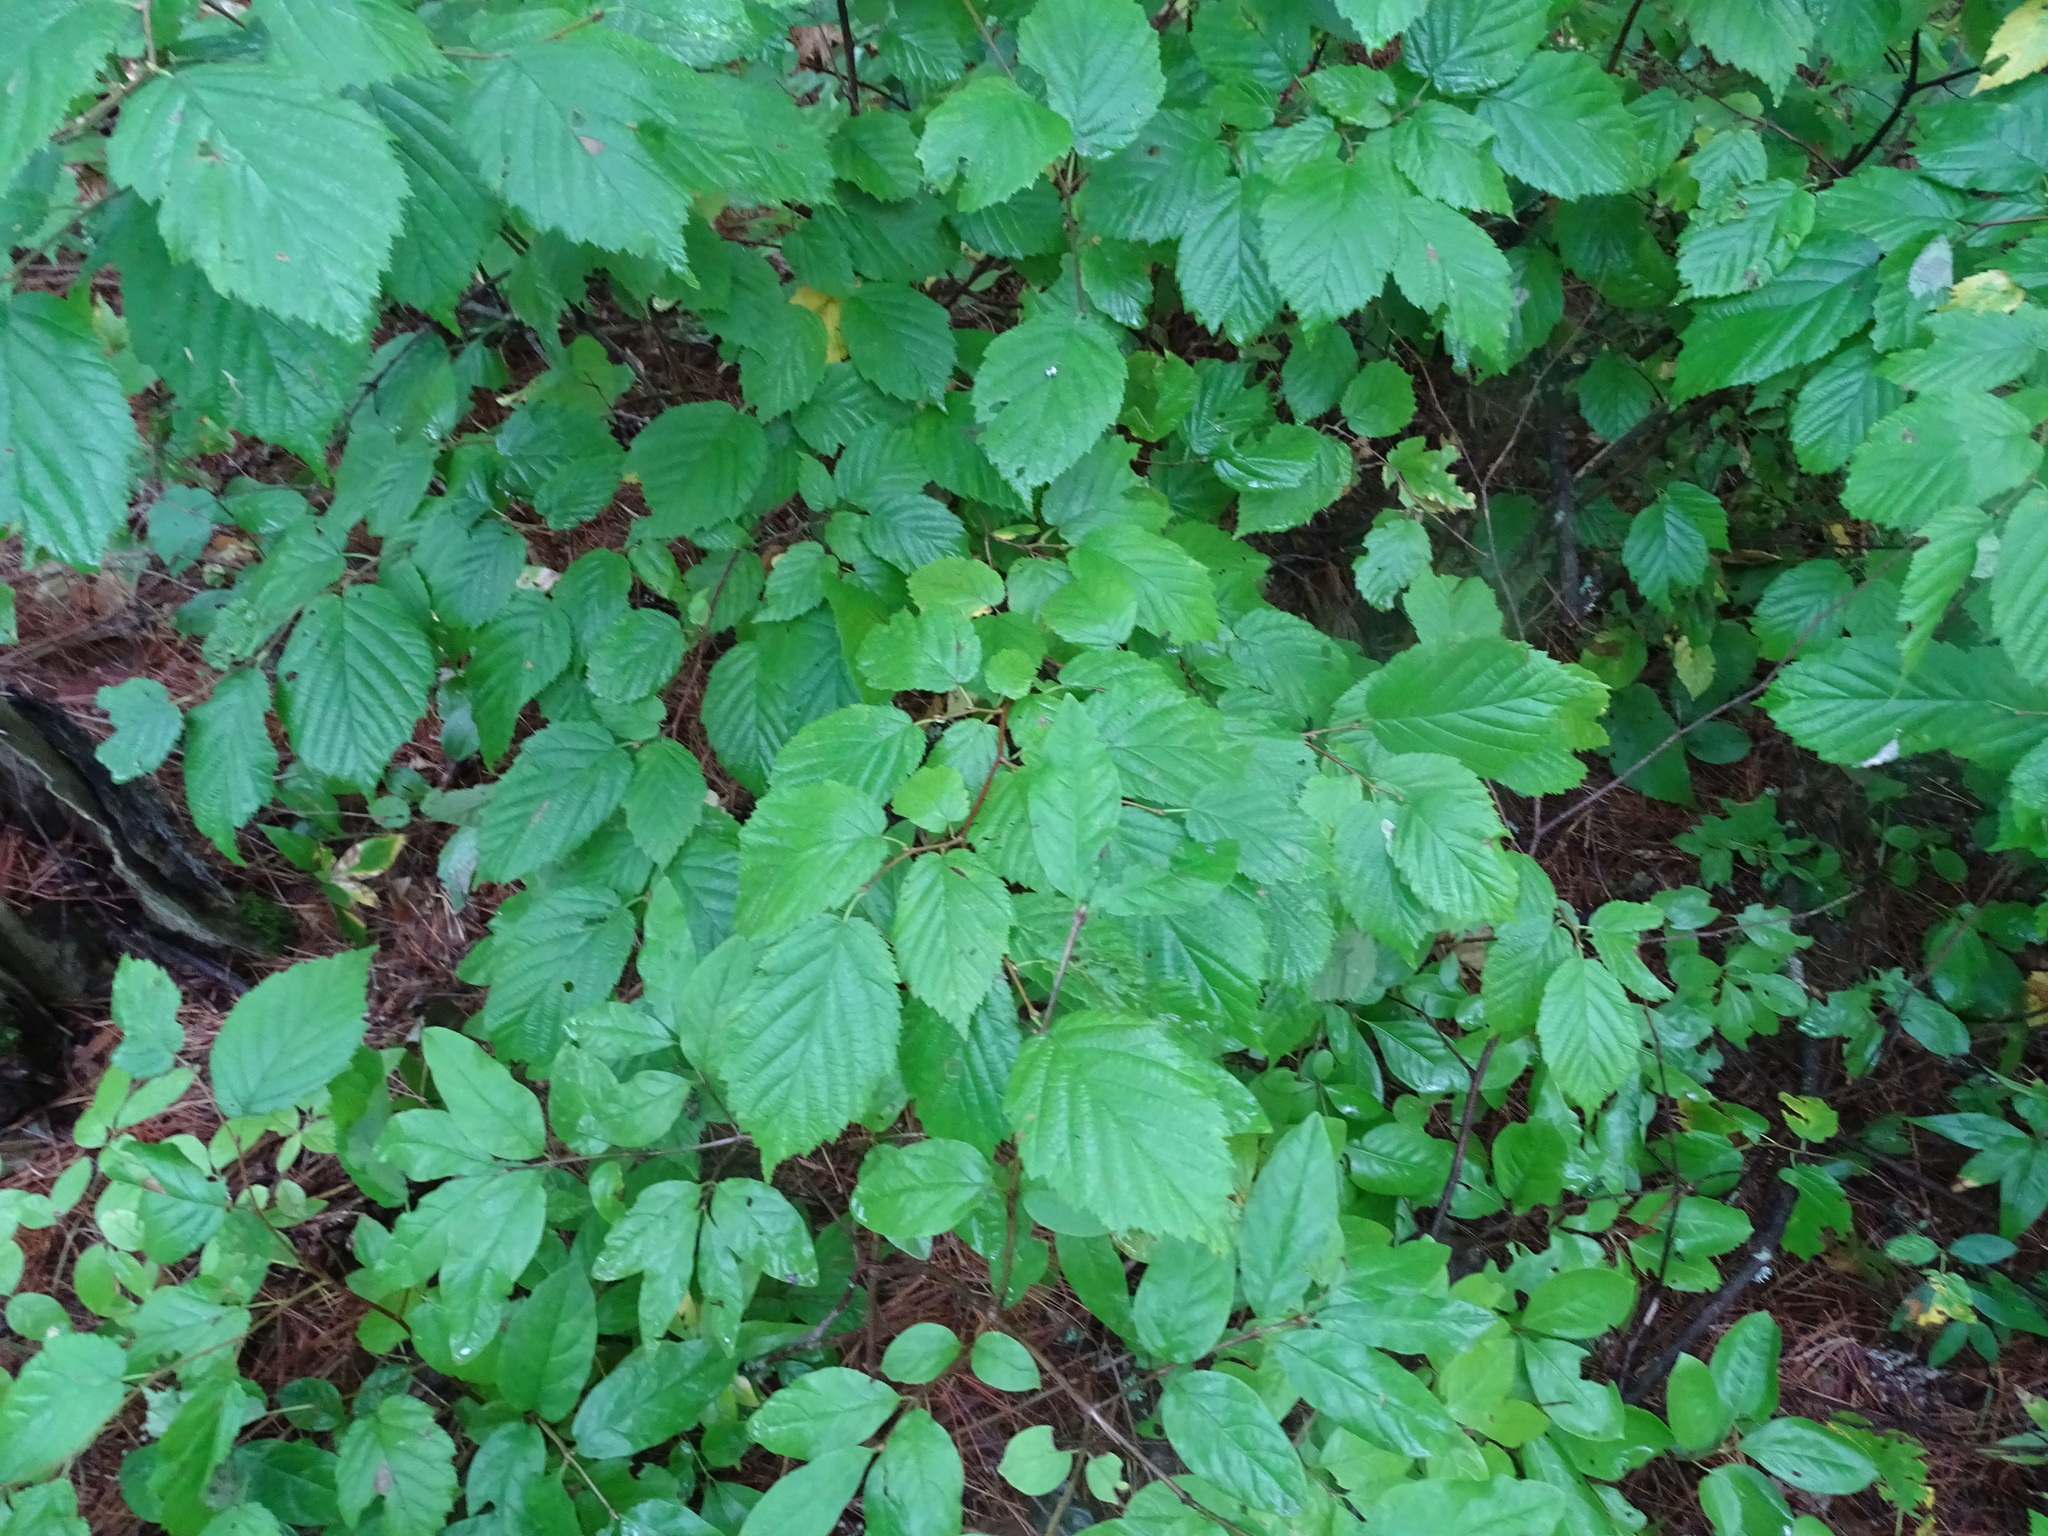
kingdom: Plantae
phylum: Tracheophyta
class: Magnoliopsida
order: Fagales
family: Betulaceae
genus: Corylus
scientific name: Corylus cornuta
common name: Beaked hazel
